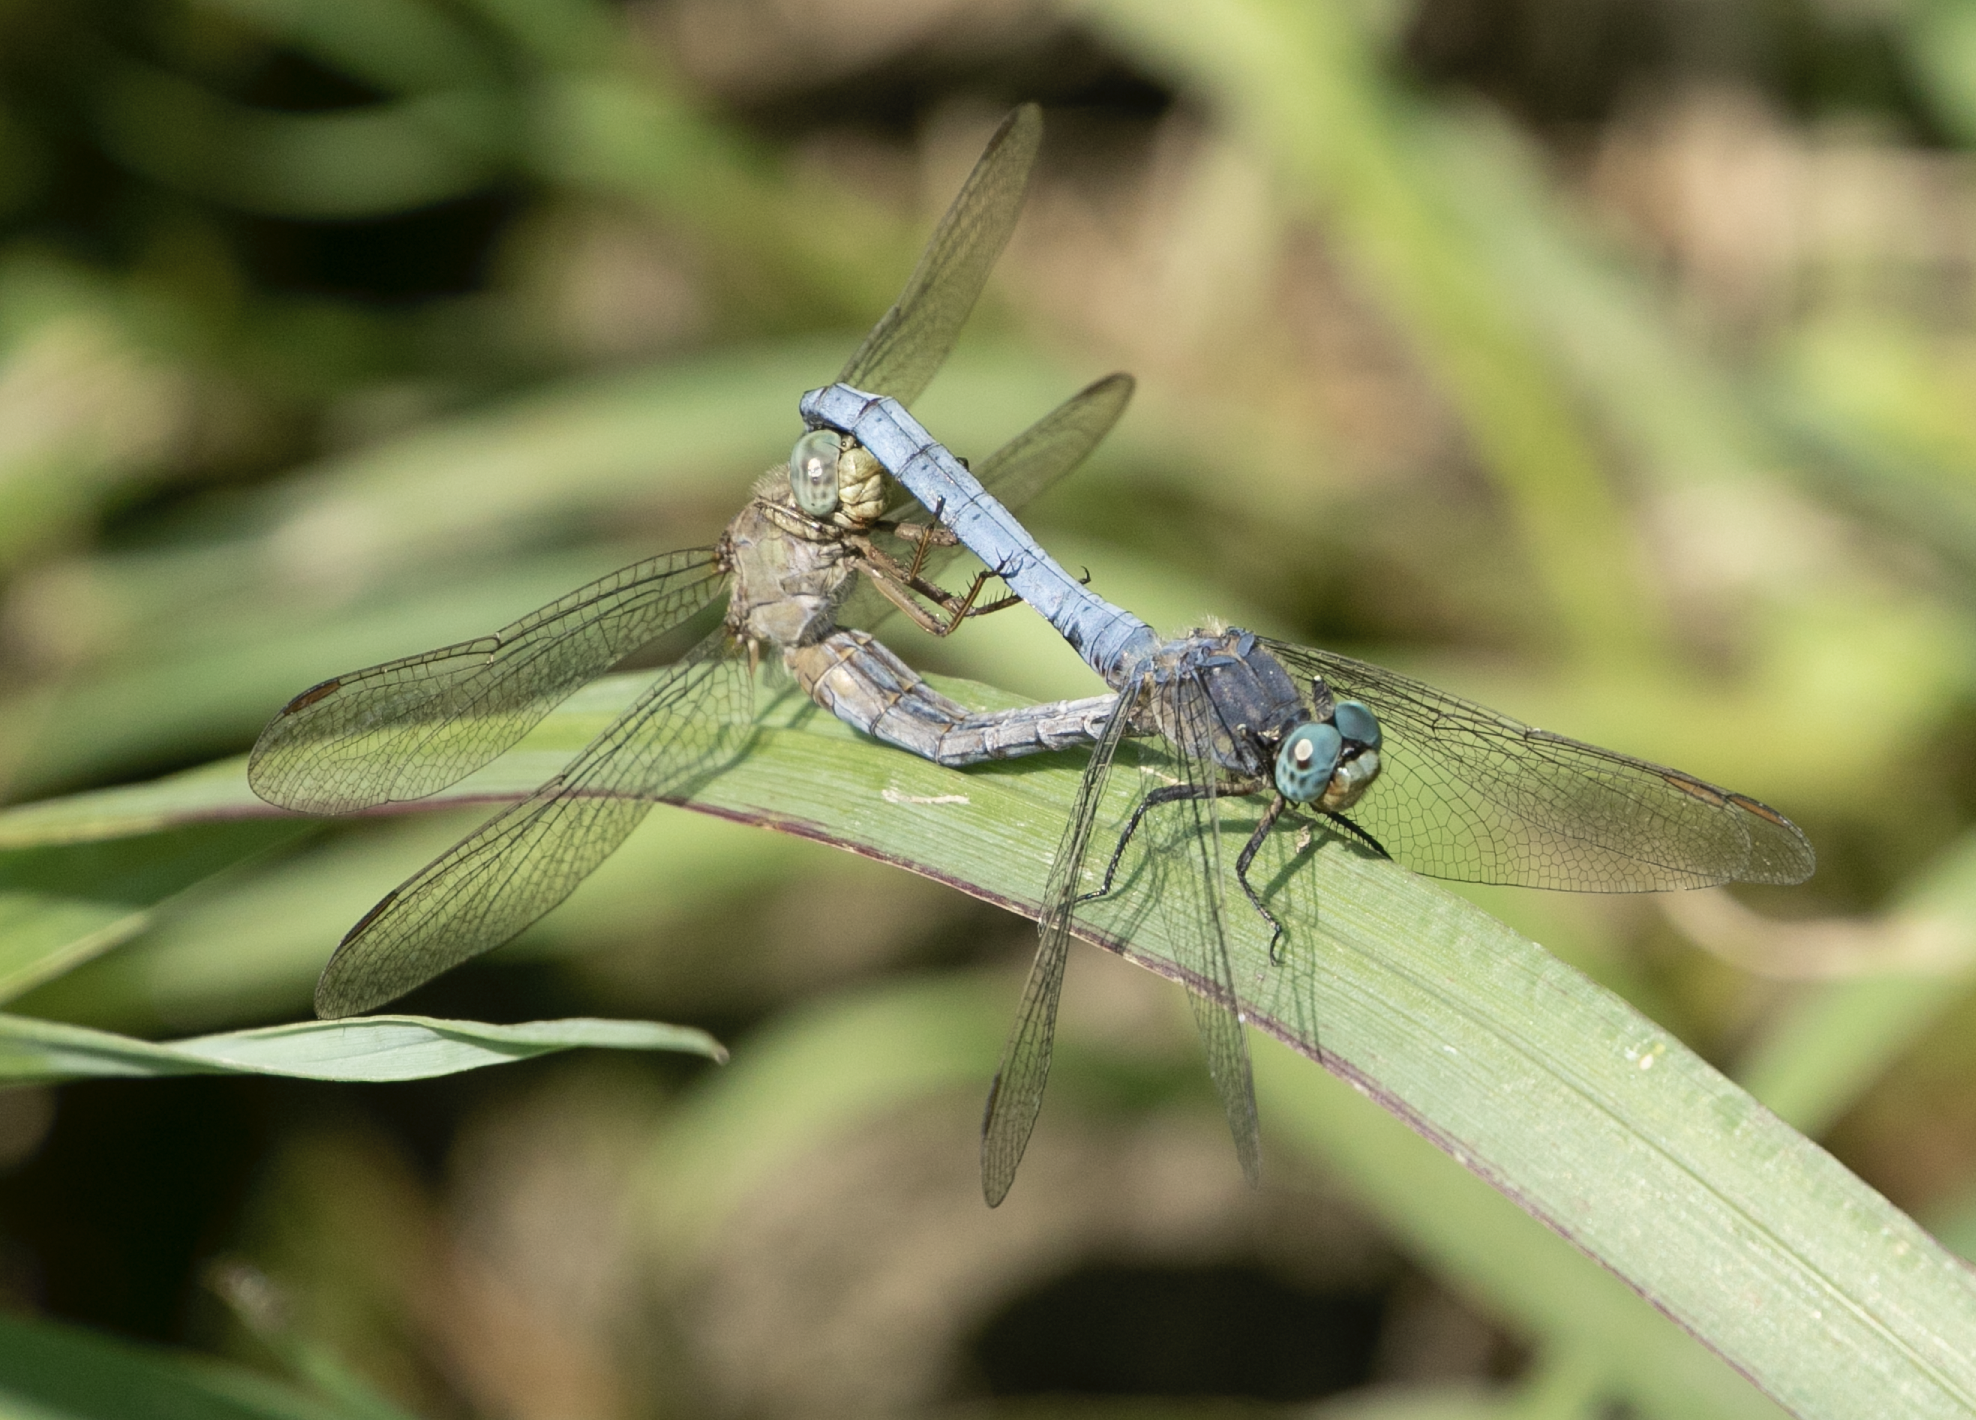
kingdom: Animalia
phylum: Arthropoda
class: Insecta
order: Odonata
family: Libellulidae
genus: Orthetrum
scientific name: Orthetrum coerulescens
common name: Keeled skimmer
